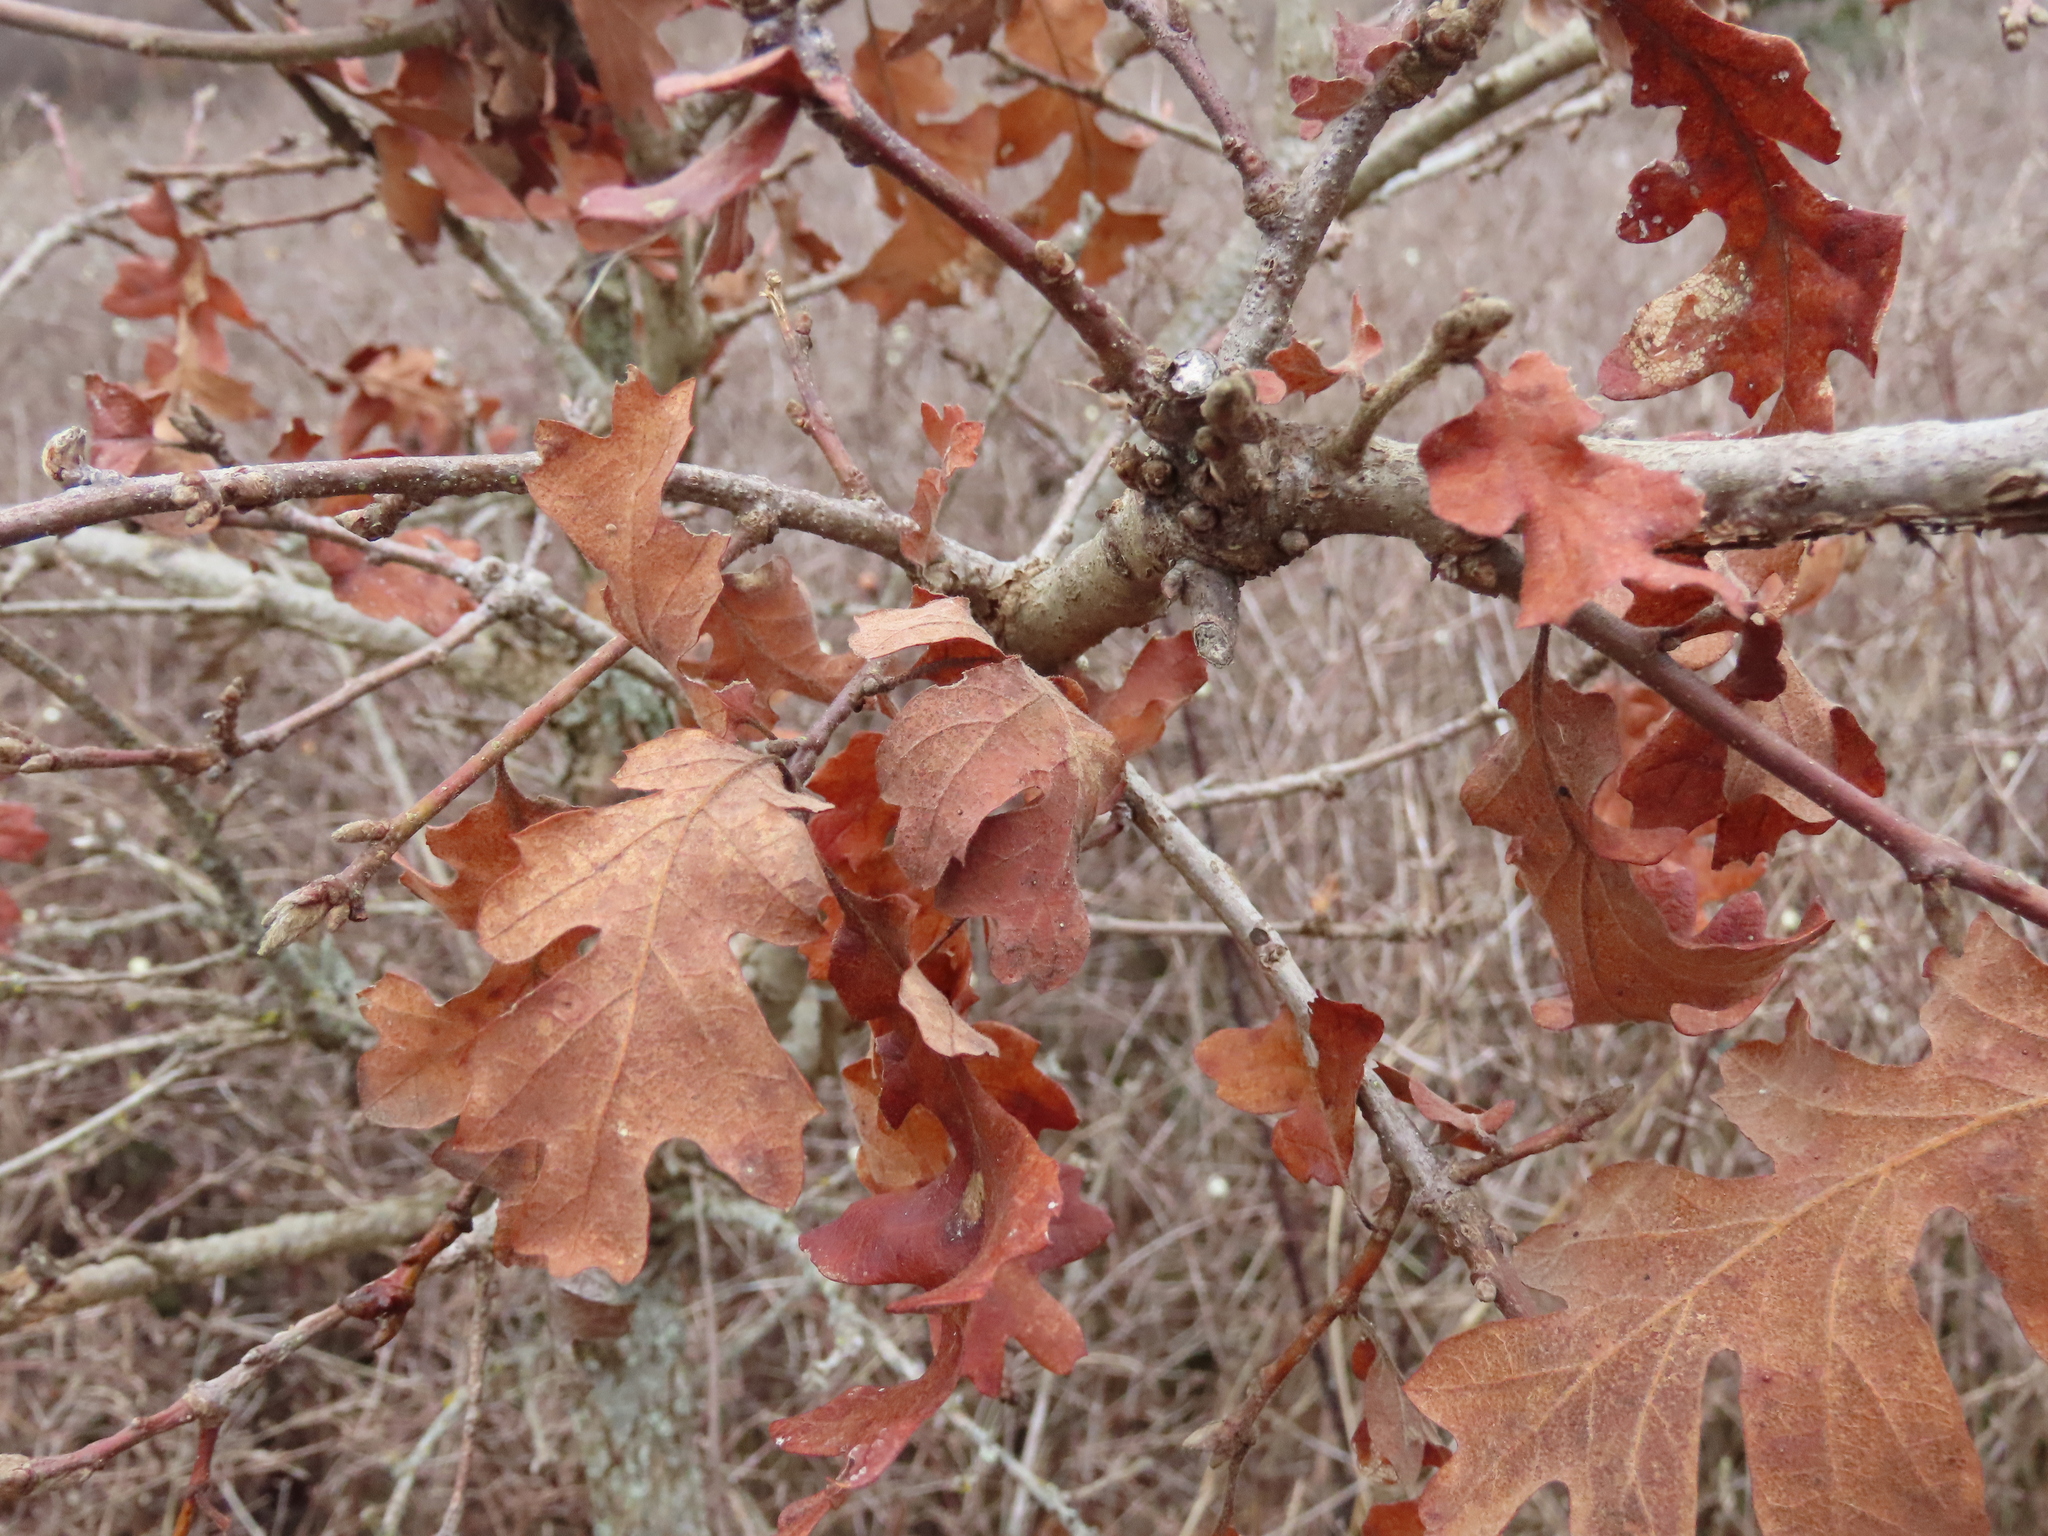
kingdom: Plantae
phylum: Tracheophyta
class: Magnoliopsida
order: Fagales
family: Fagaceae
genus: Quercus
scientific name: Quercus garryana
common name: Garry oak
